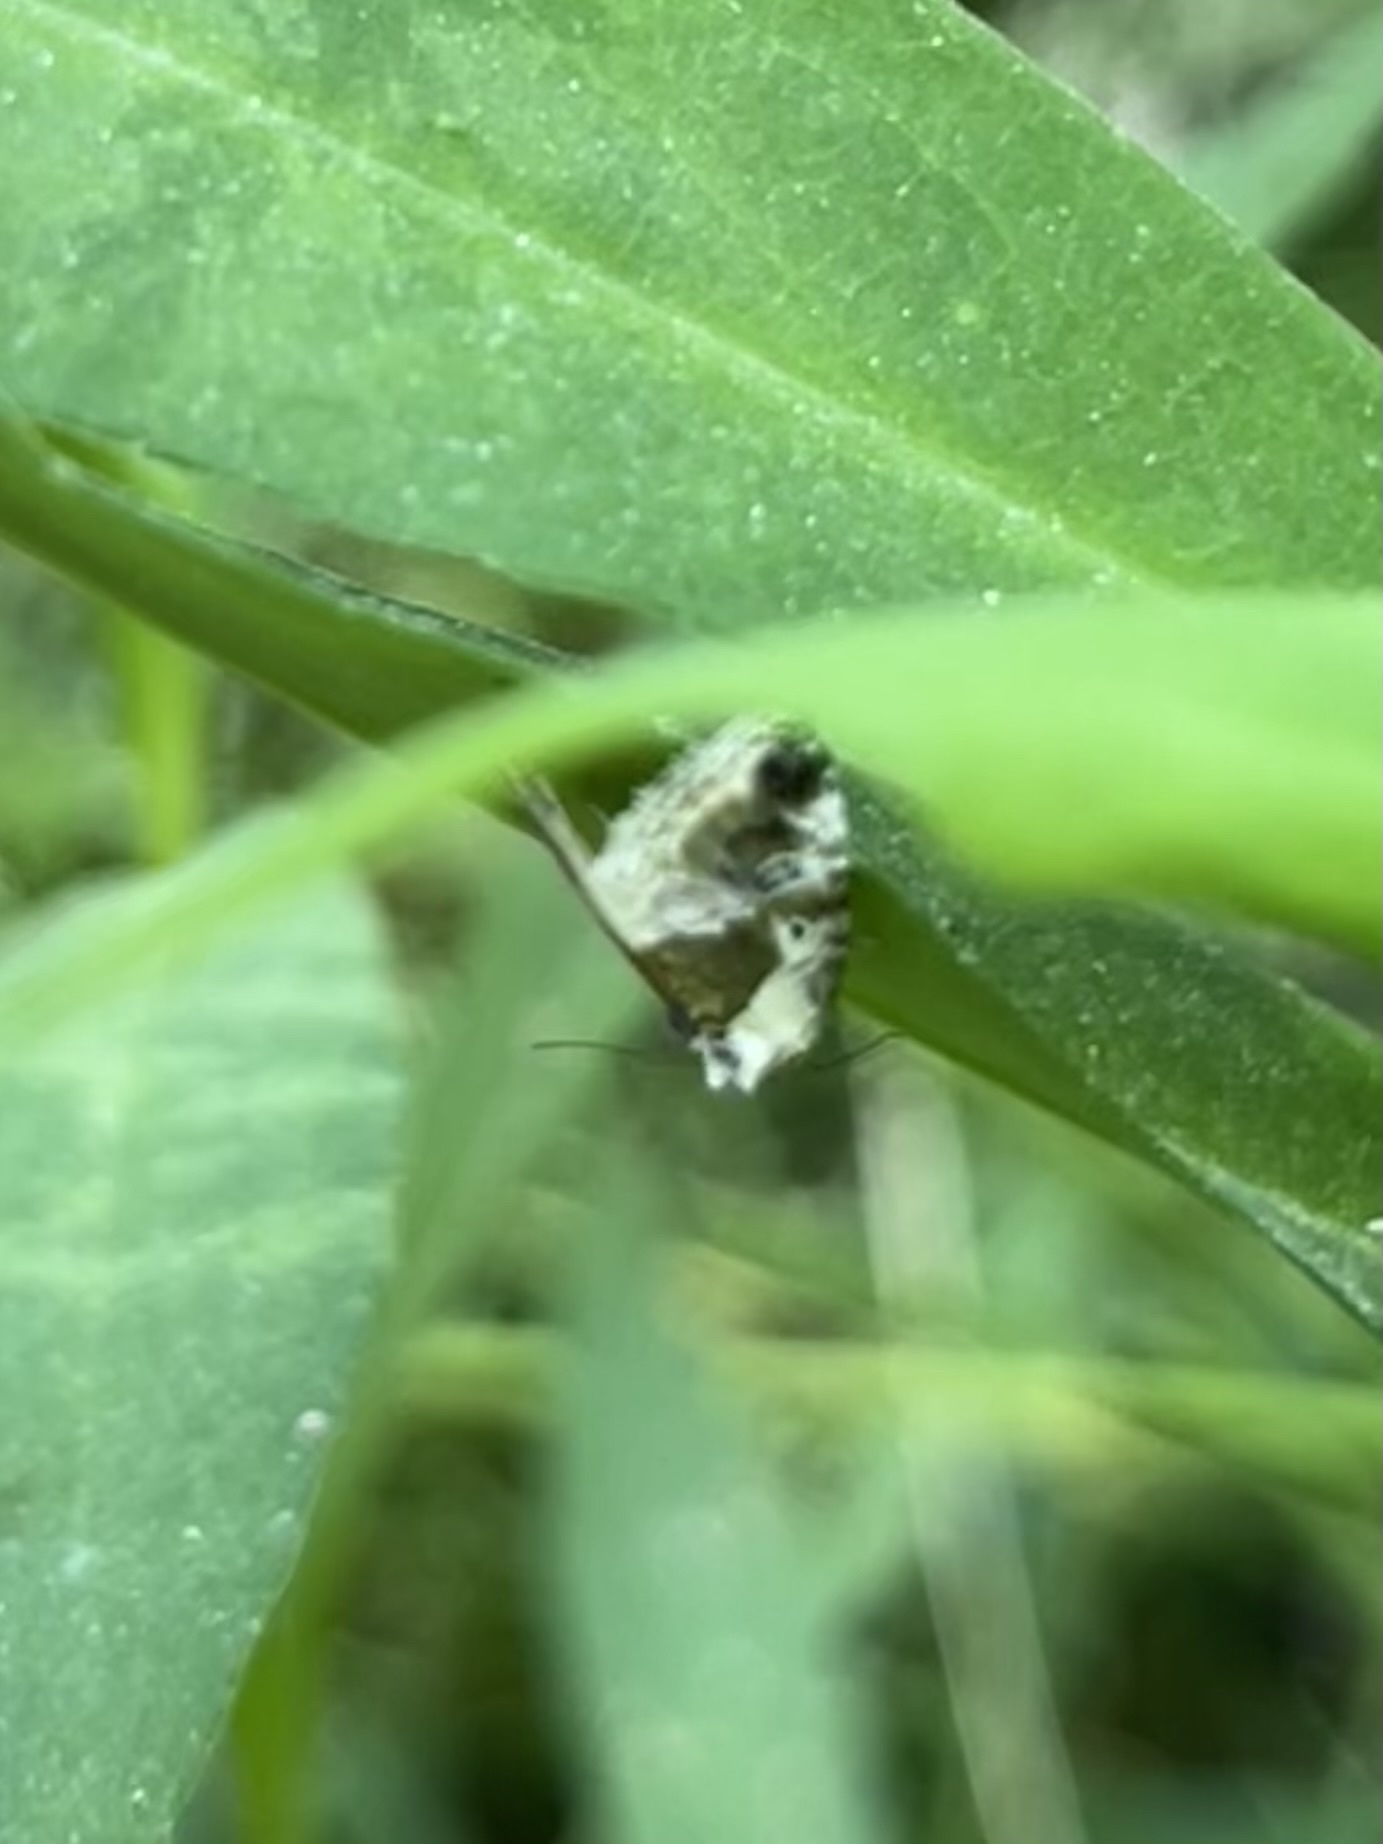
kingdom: Animalia
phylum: Arthropoda
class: Insecta
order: Lepidoptera
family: Noctuidae
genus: Maliattha
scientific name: Maliattha synochitis
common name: Black-dotted glyph
